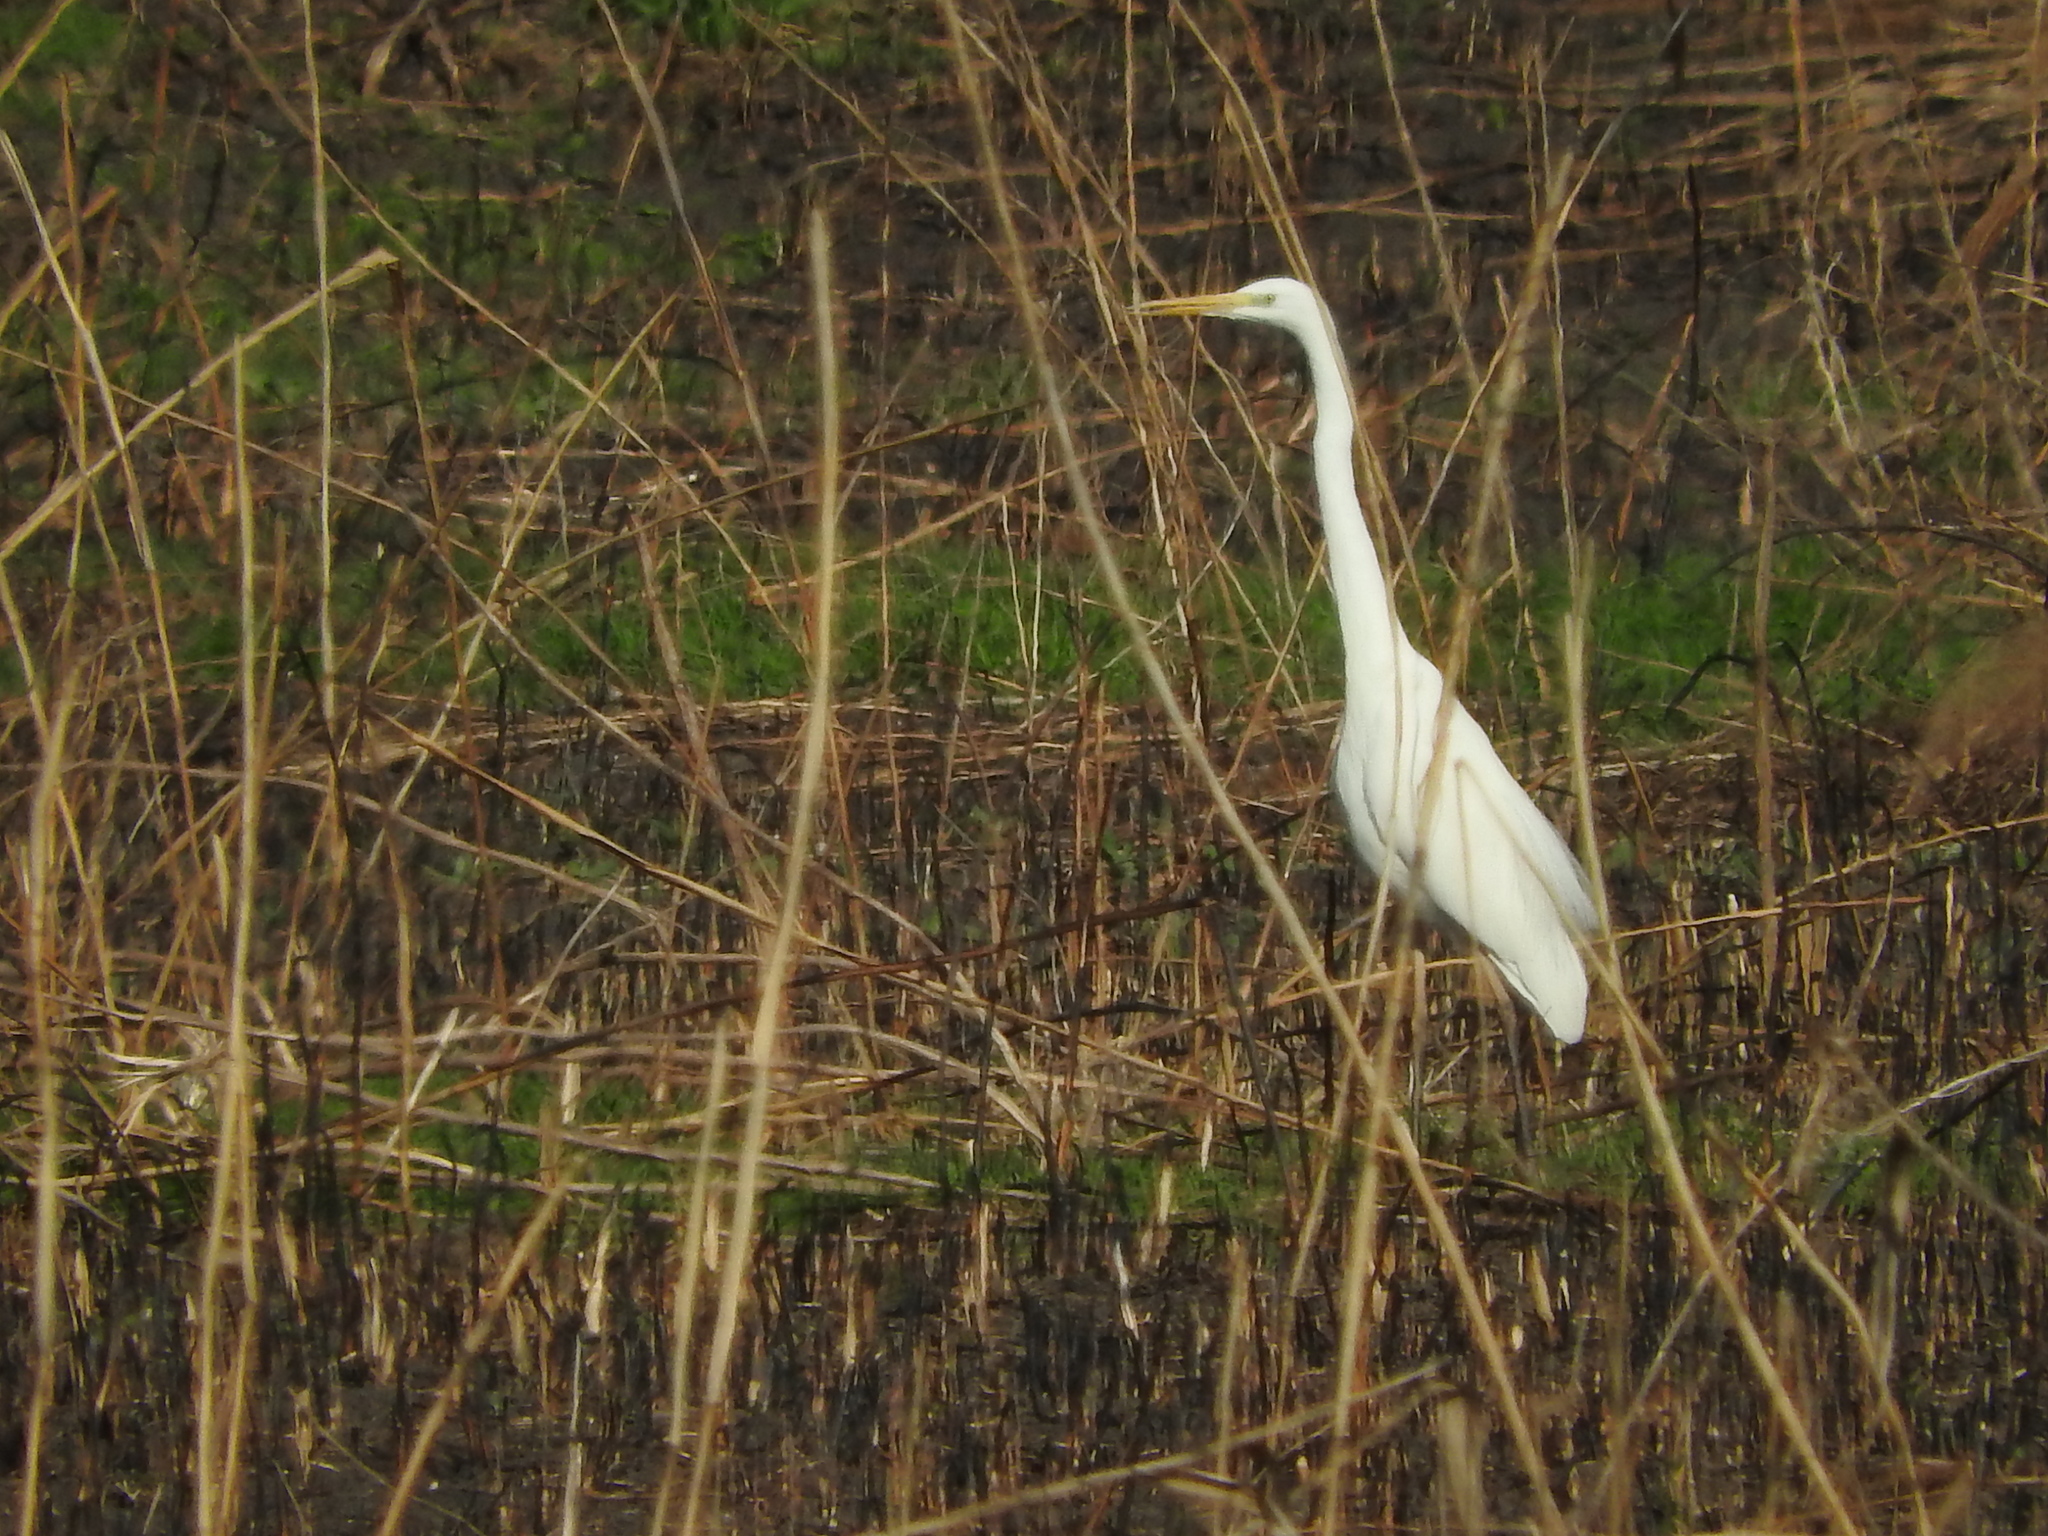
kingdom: Animalia
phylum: Chordata
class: Aves
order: Pelecaniformes
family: Ardeidae
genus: Ardea
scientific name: Ardea alba
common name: Great egret
